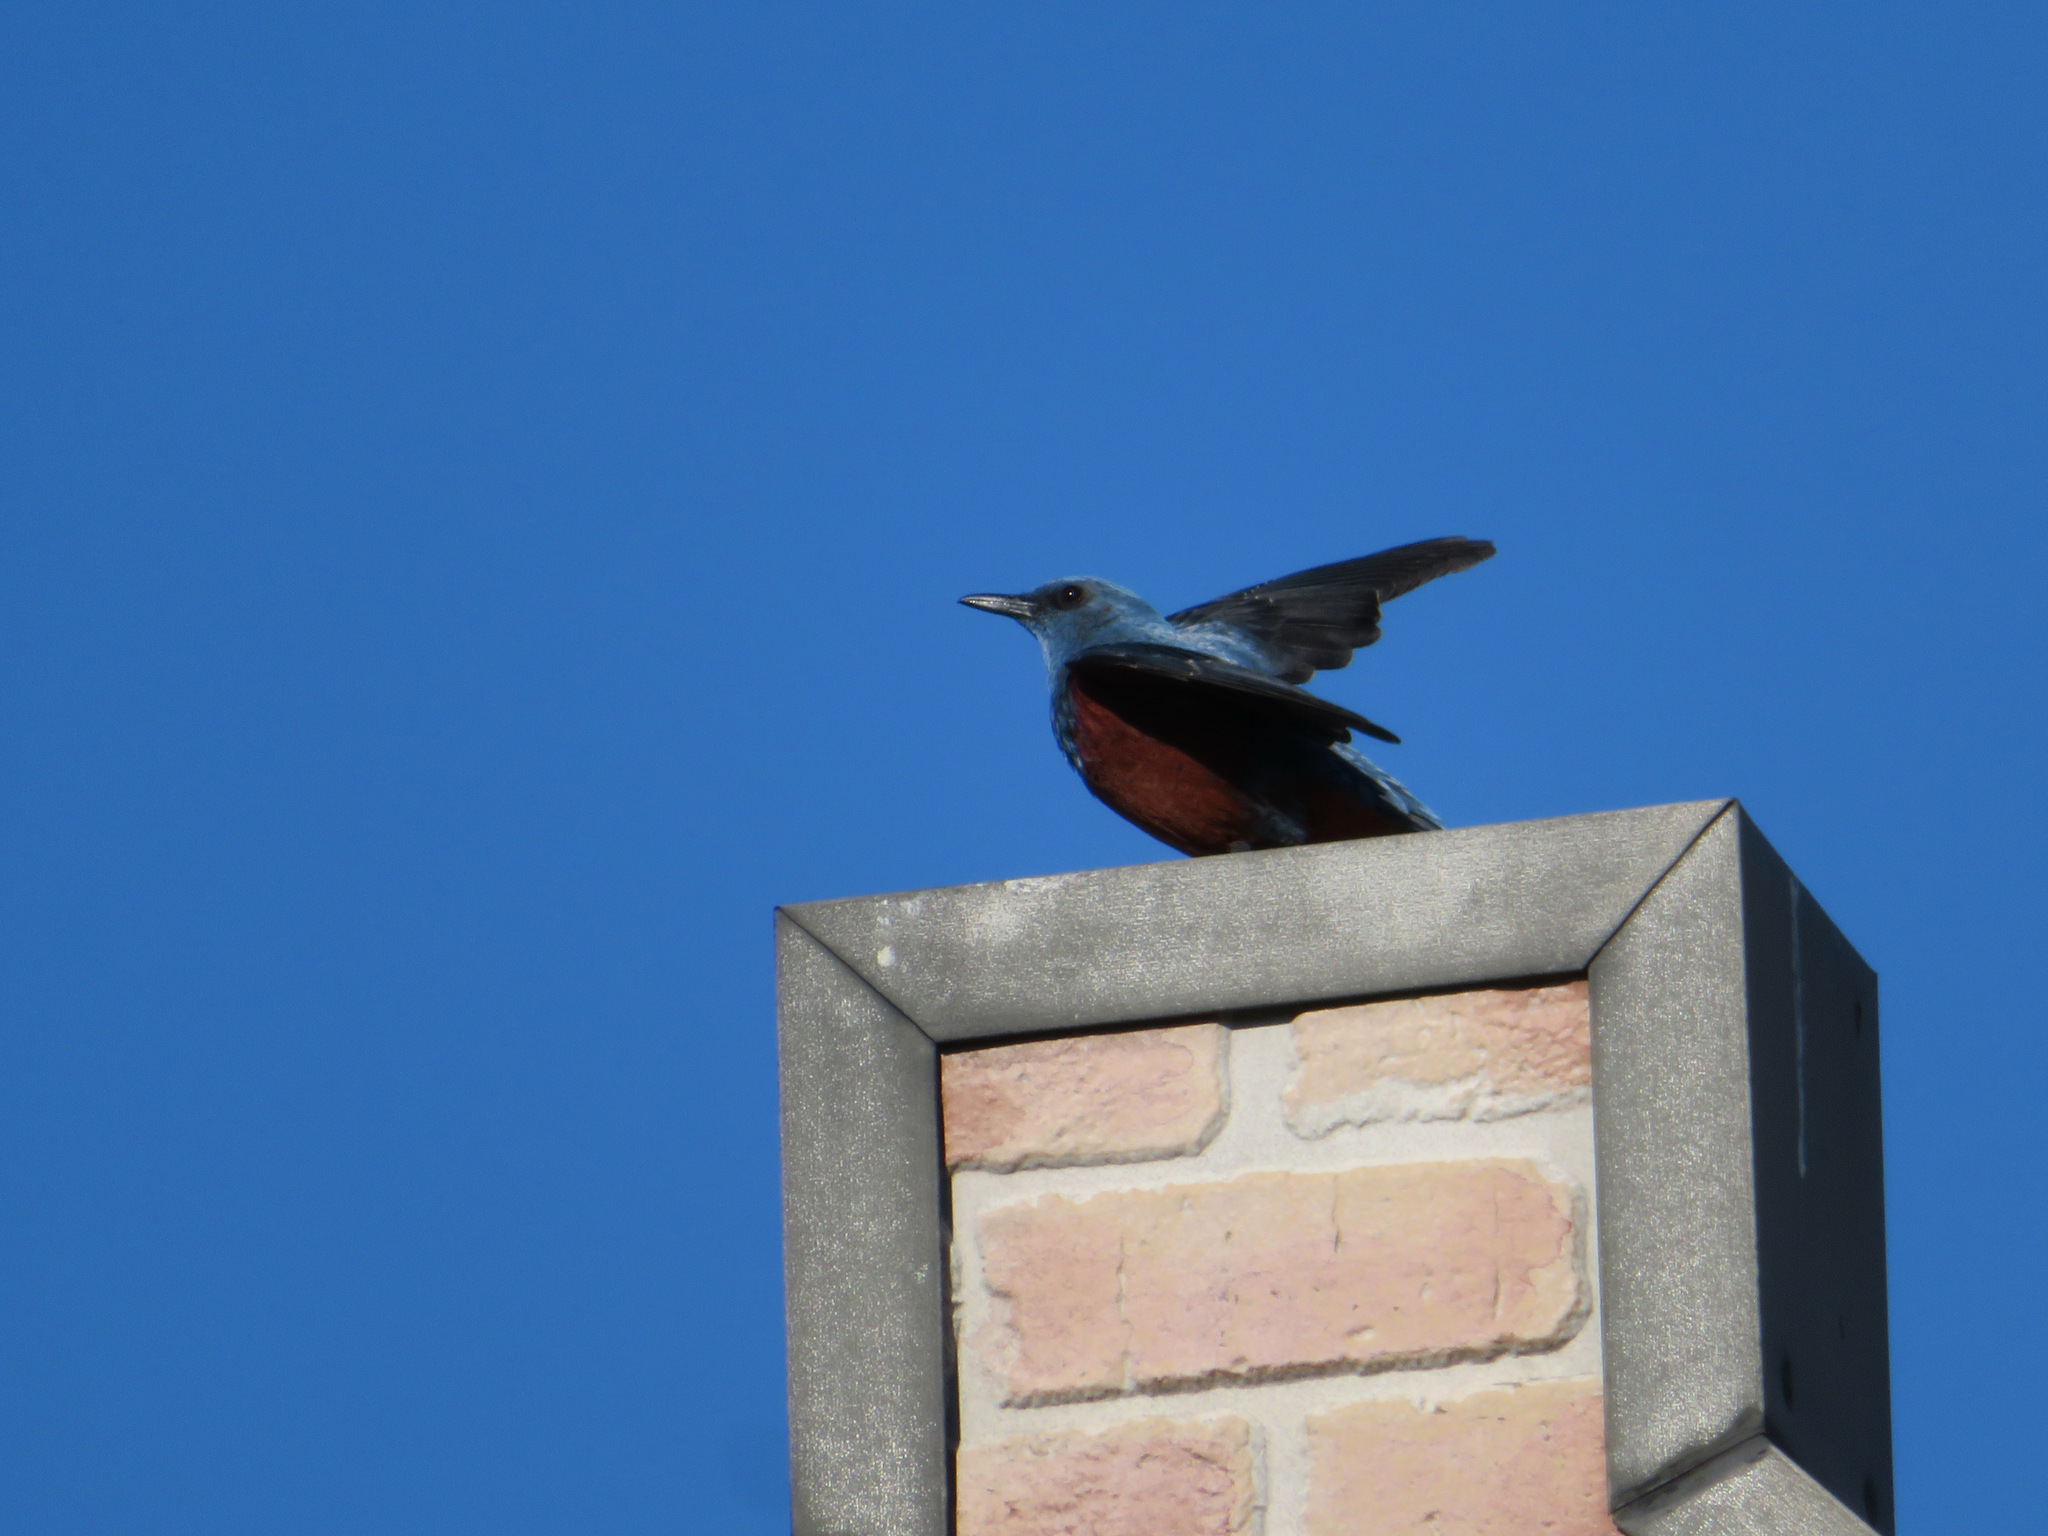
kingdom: Animalia
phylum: Chordata
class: Aves
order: Passeriformes
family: Muscicapidae
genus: Monticola
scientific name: Monticola solitarius
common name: Blue rock thrush
